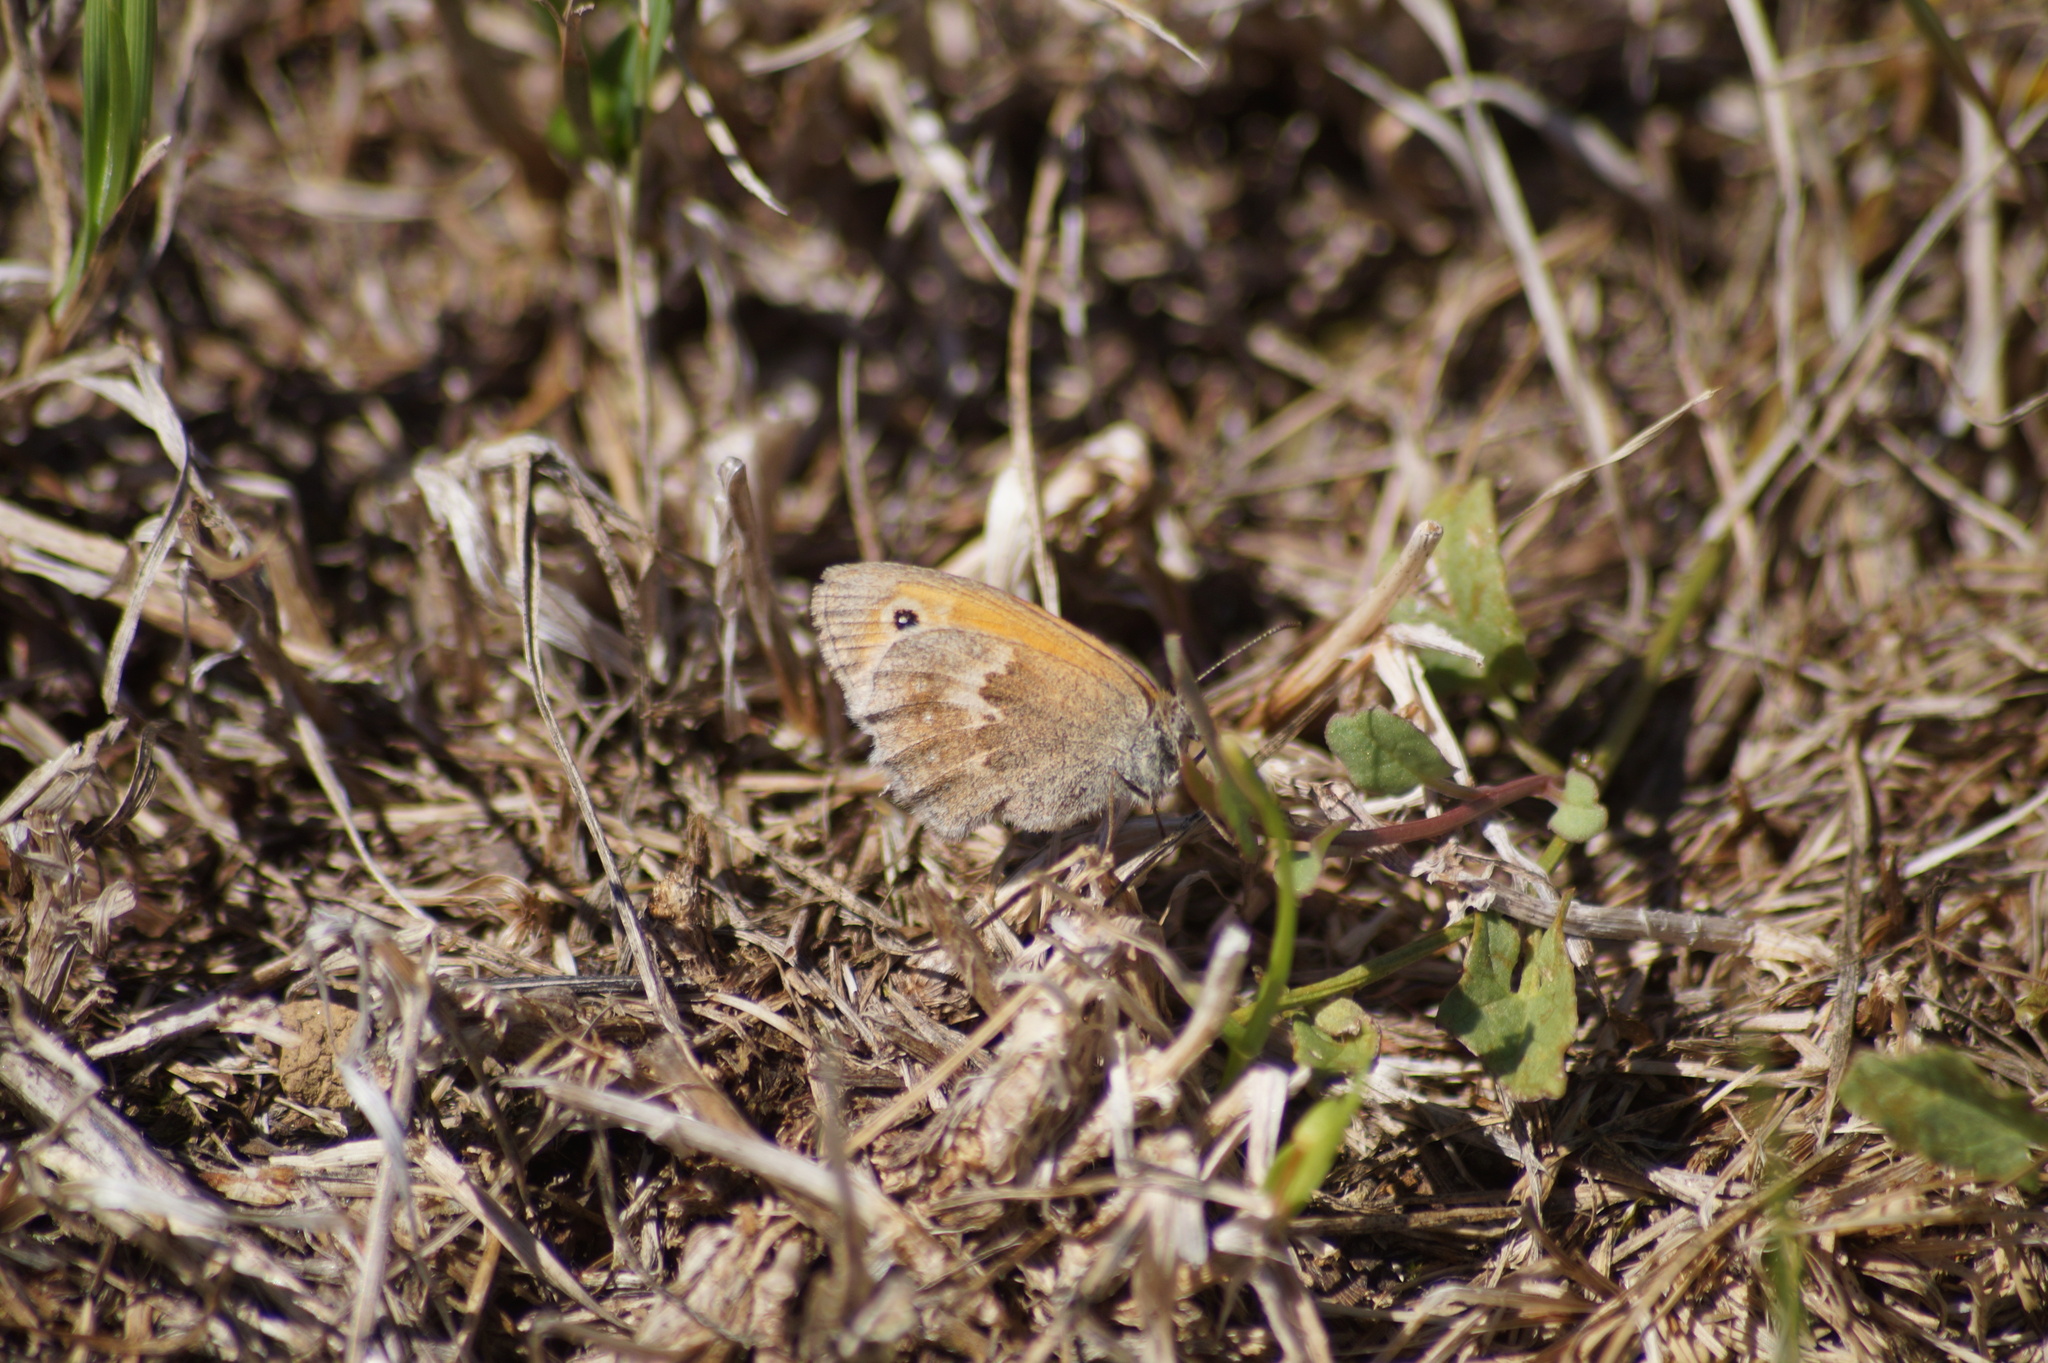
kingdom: Animalia
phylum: Arthropoda
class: Insecta
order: Lepidoptera
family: Nymphalidae
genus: Coenonympha
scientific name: Coenonympha pamphilus
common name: Small heath
